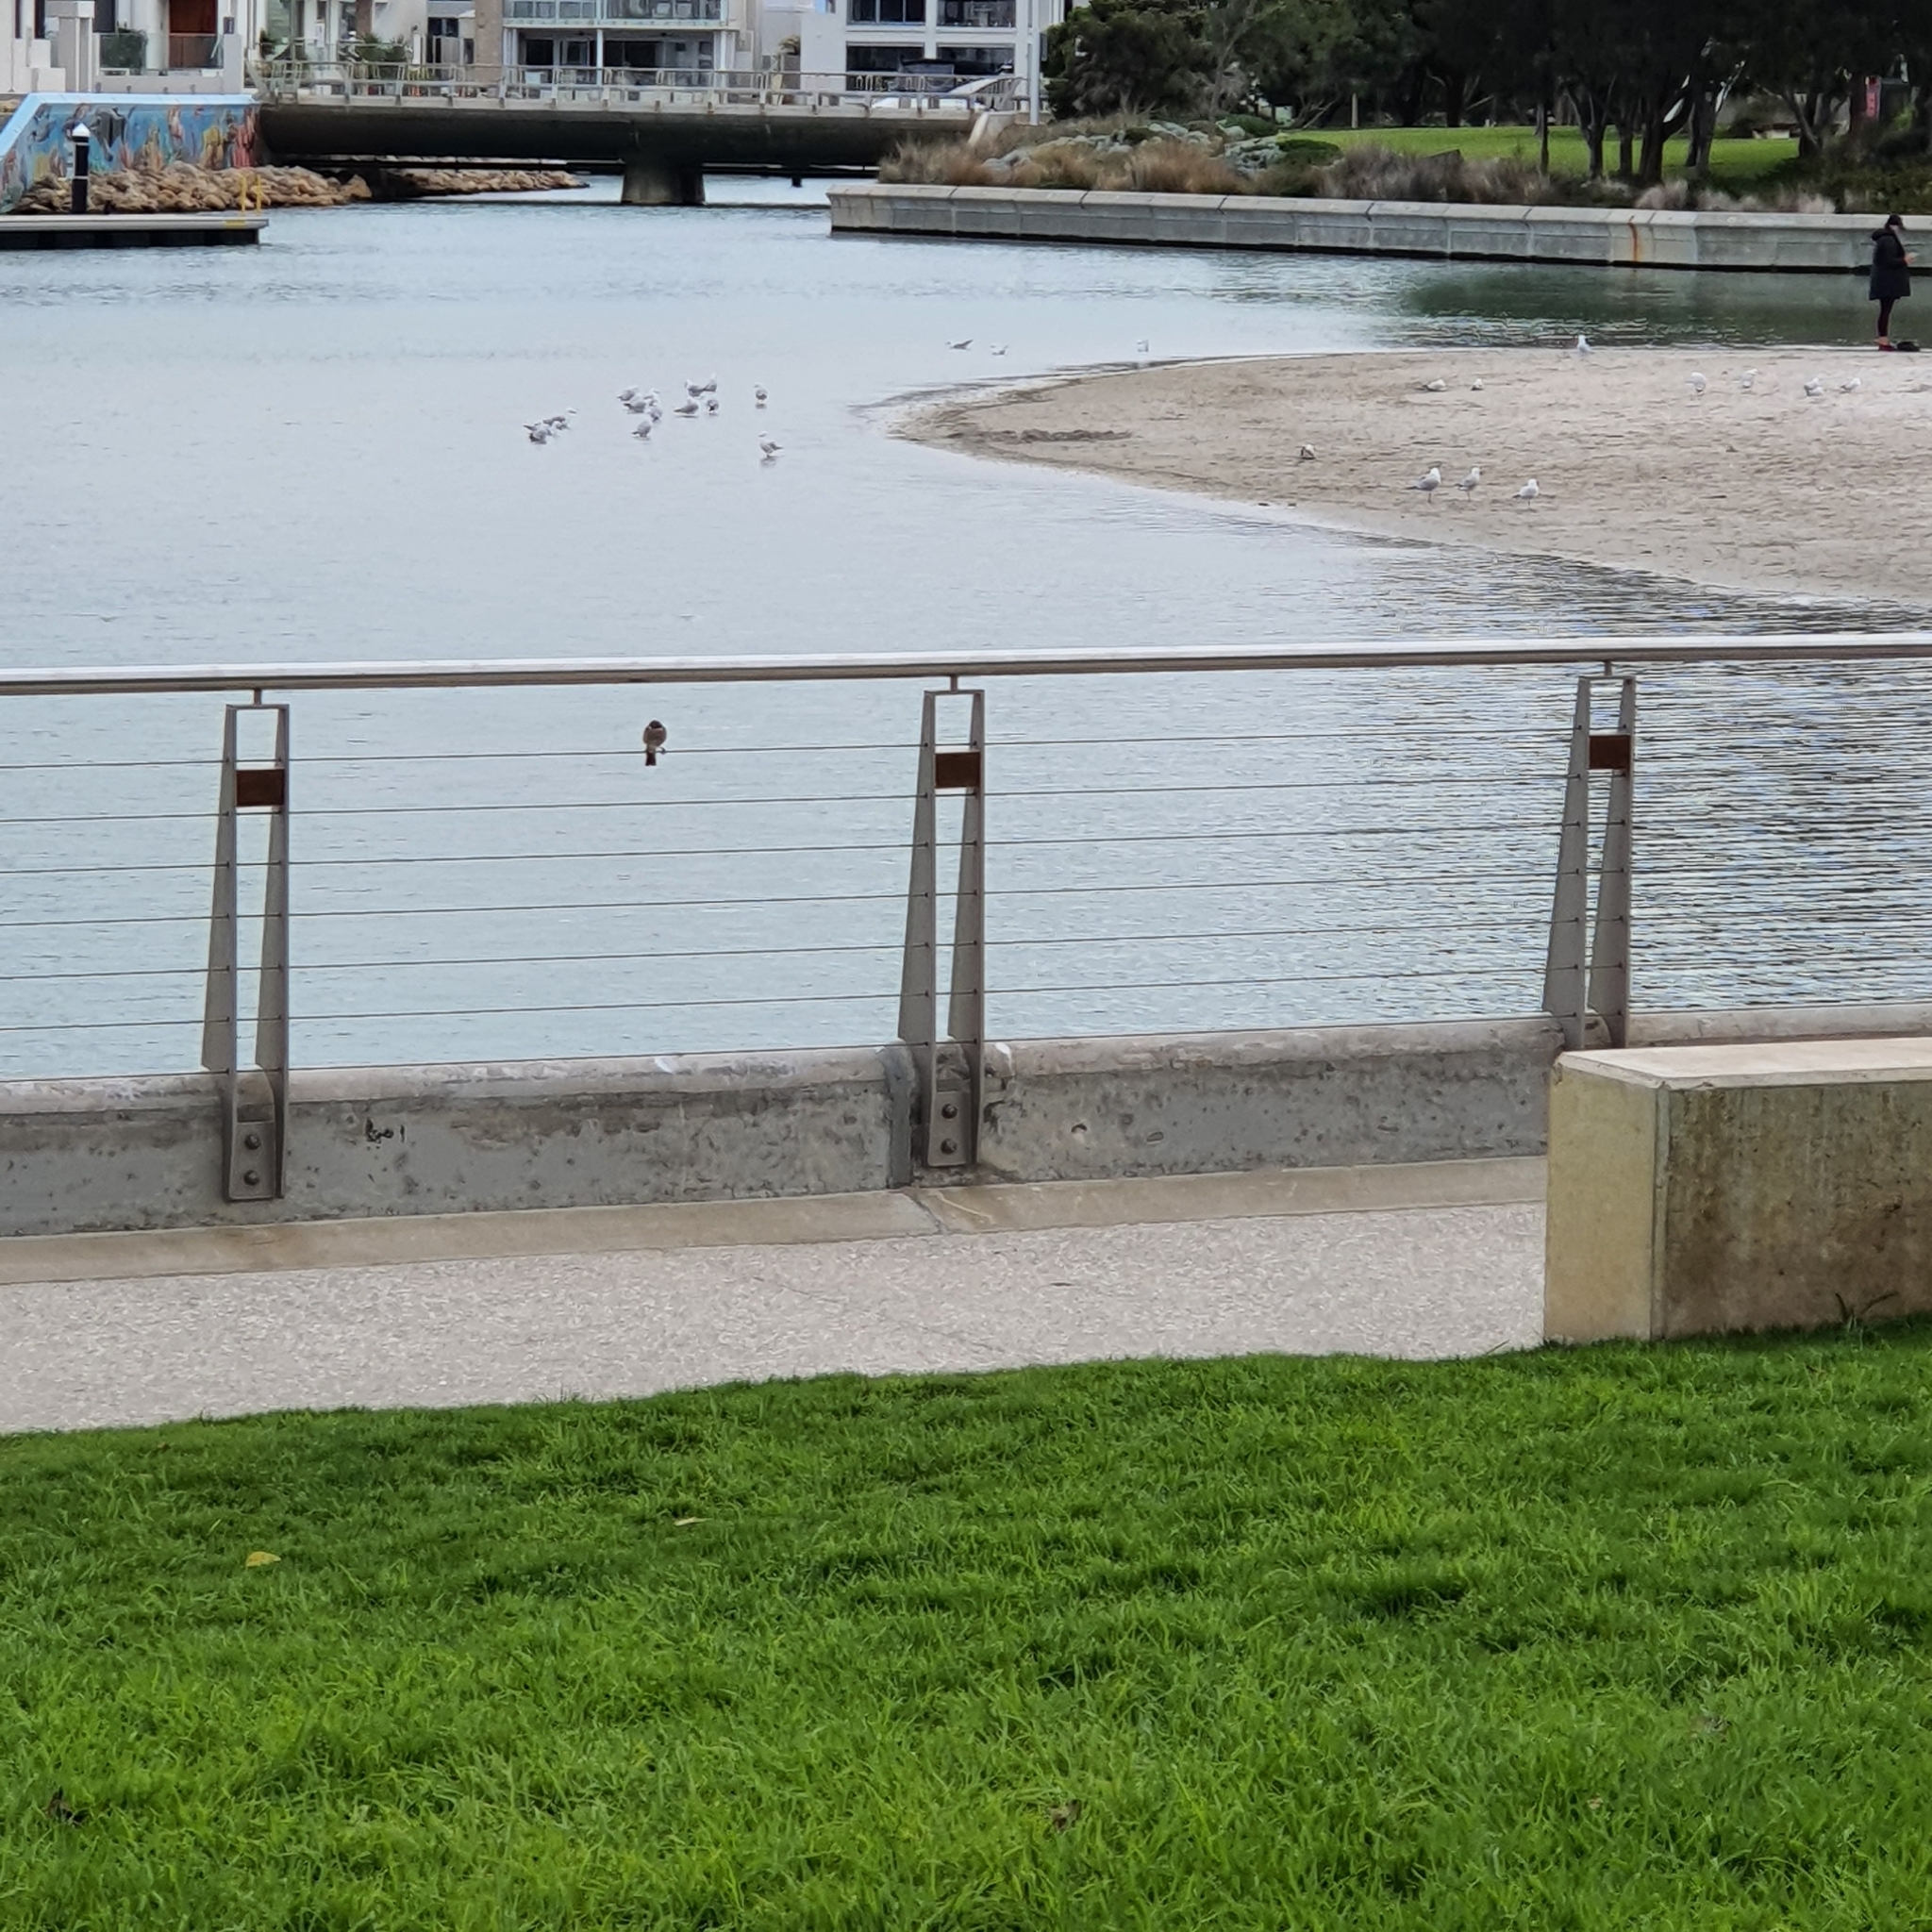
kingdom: Animalia
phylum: Chordata
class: Aves
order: Passeriformes
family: Meliphagidae
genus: Gavicalis
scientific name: Gavicalis virescens
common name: Singing honeyeater
